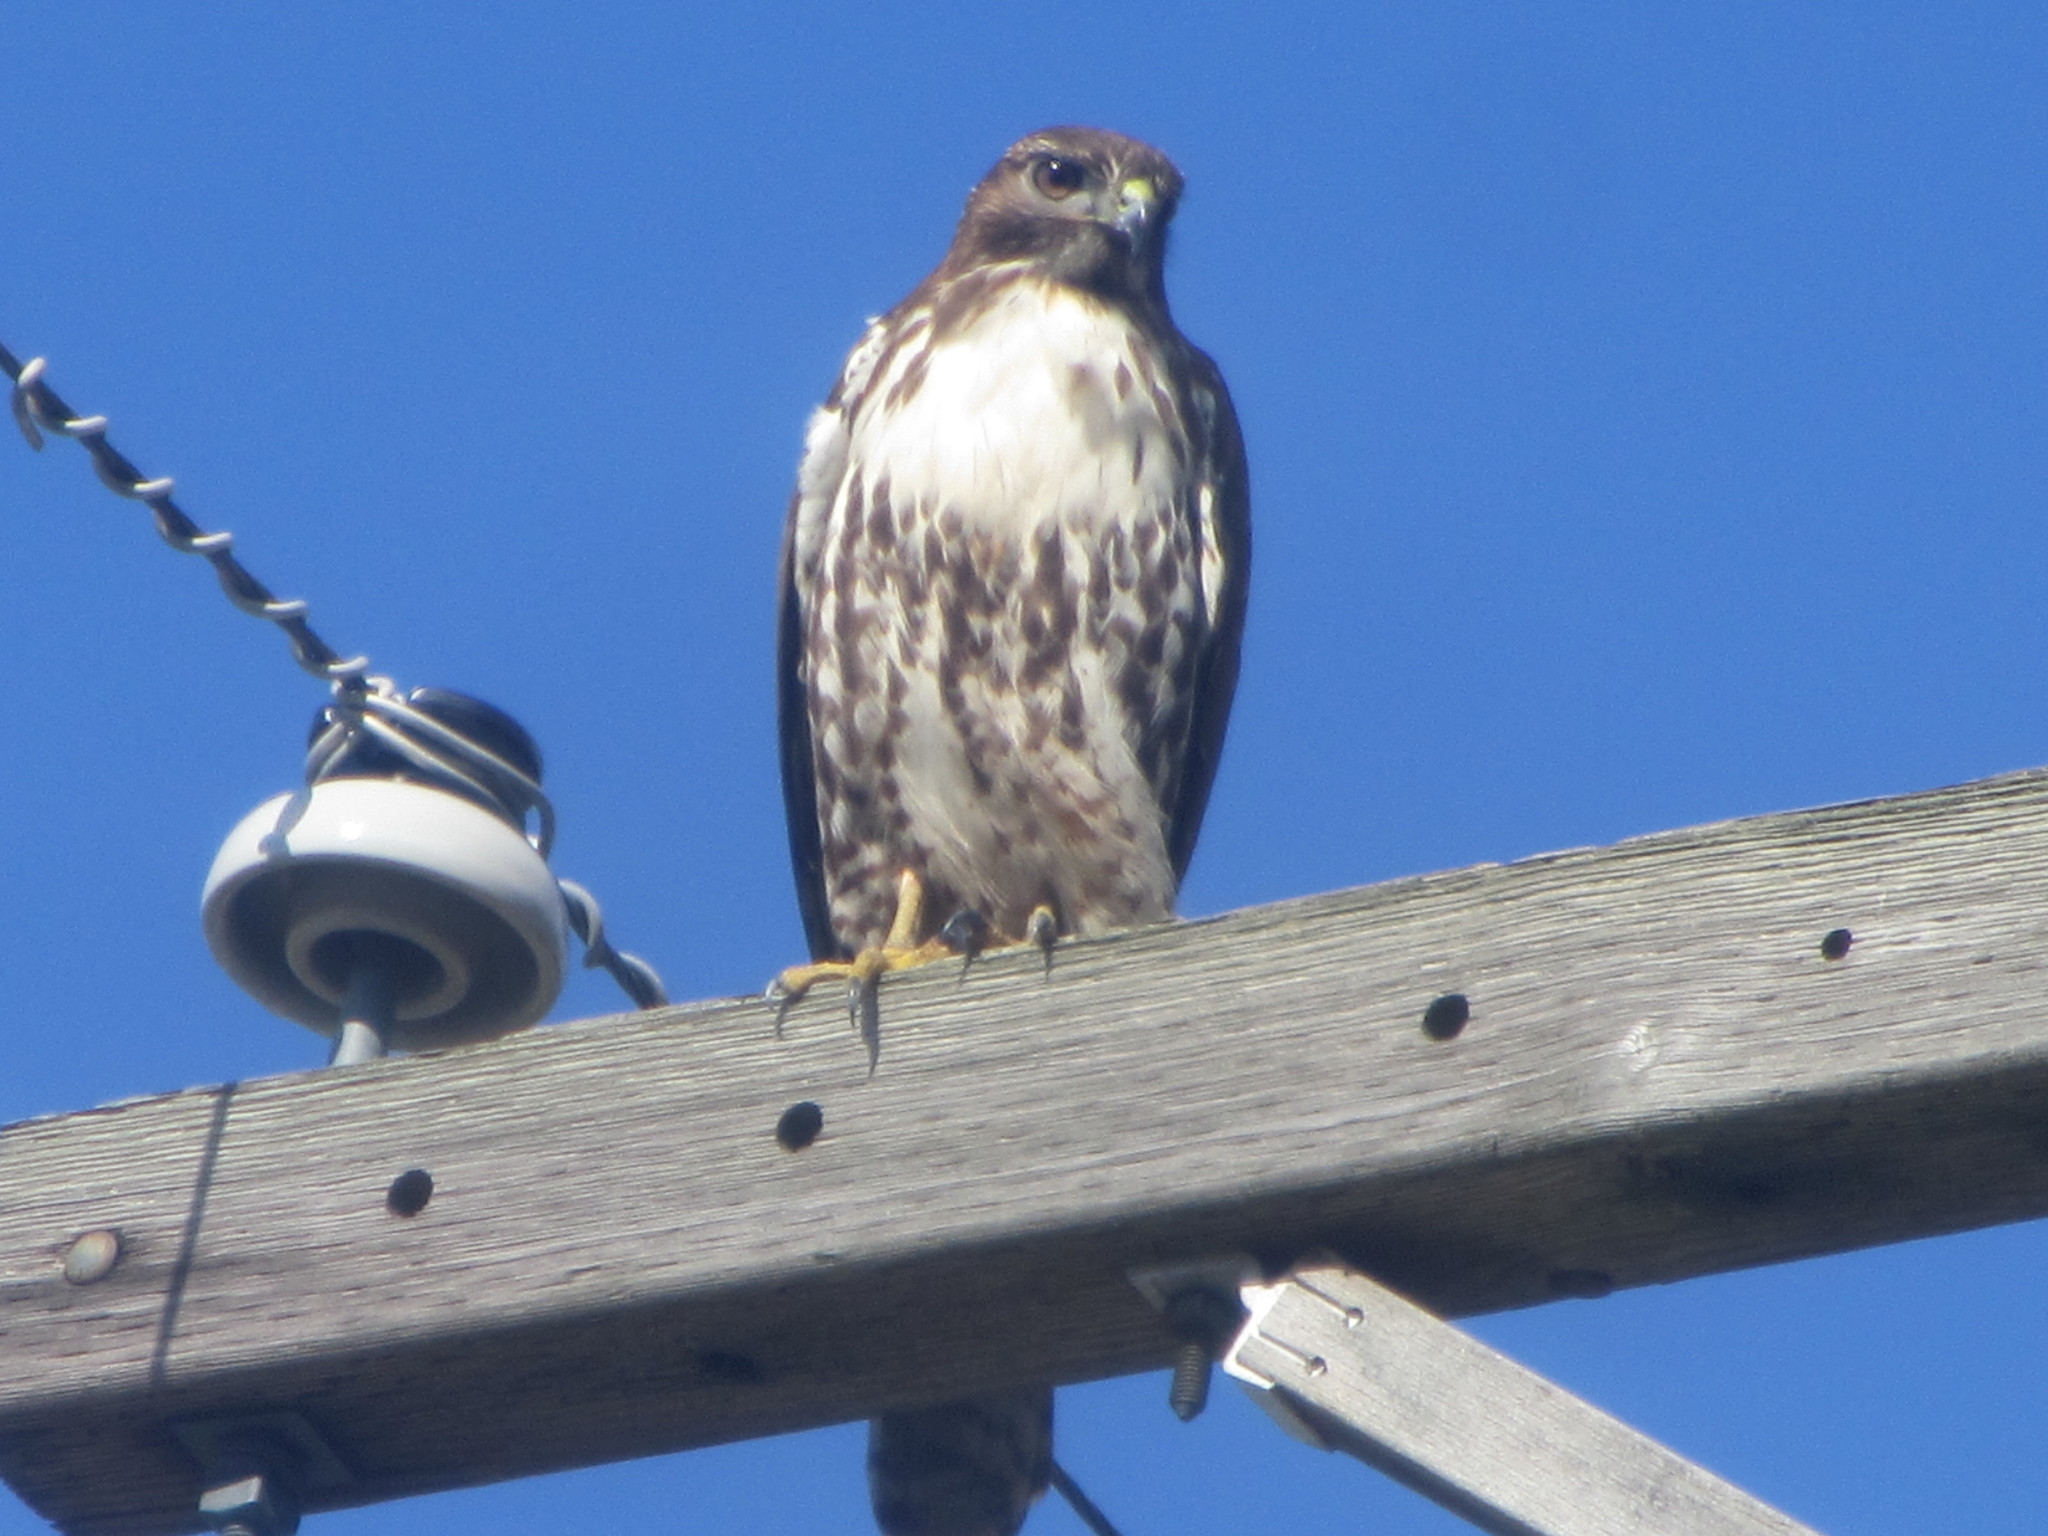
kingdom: Animalia
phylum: Chordata
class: Aves
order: Accipitriformes
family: Accipitridae
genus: Buteo
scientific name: Buteo jamaicensis
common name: Red-tailed hawk
